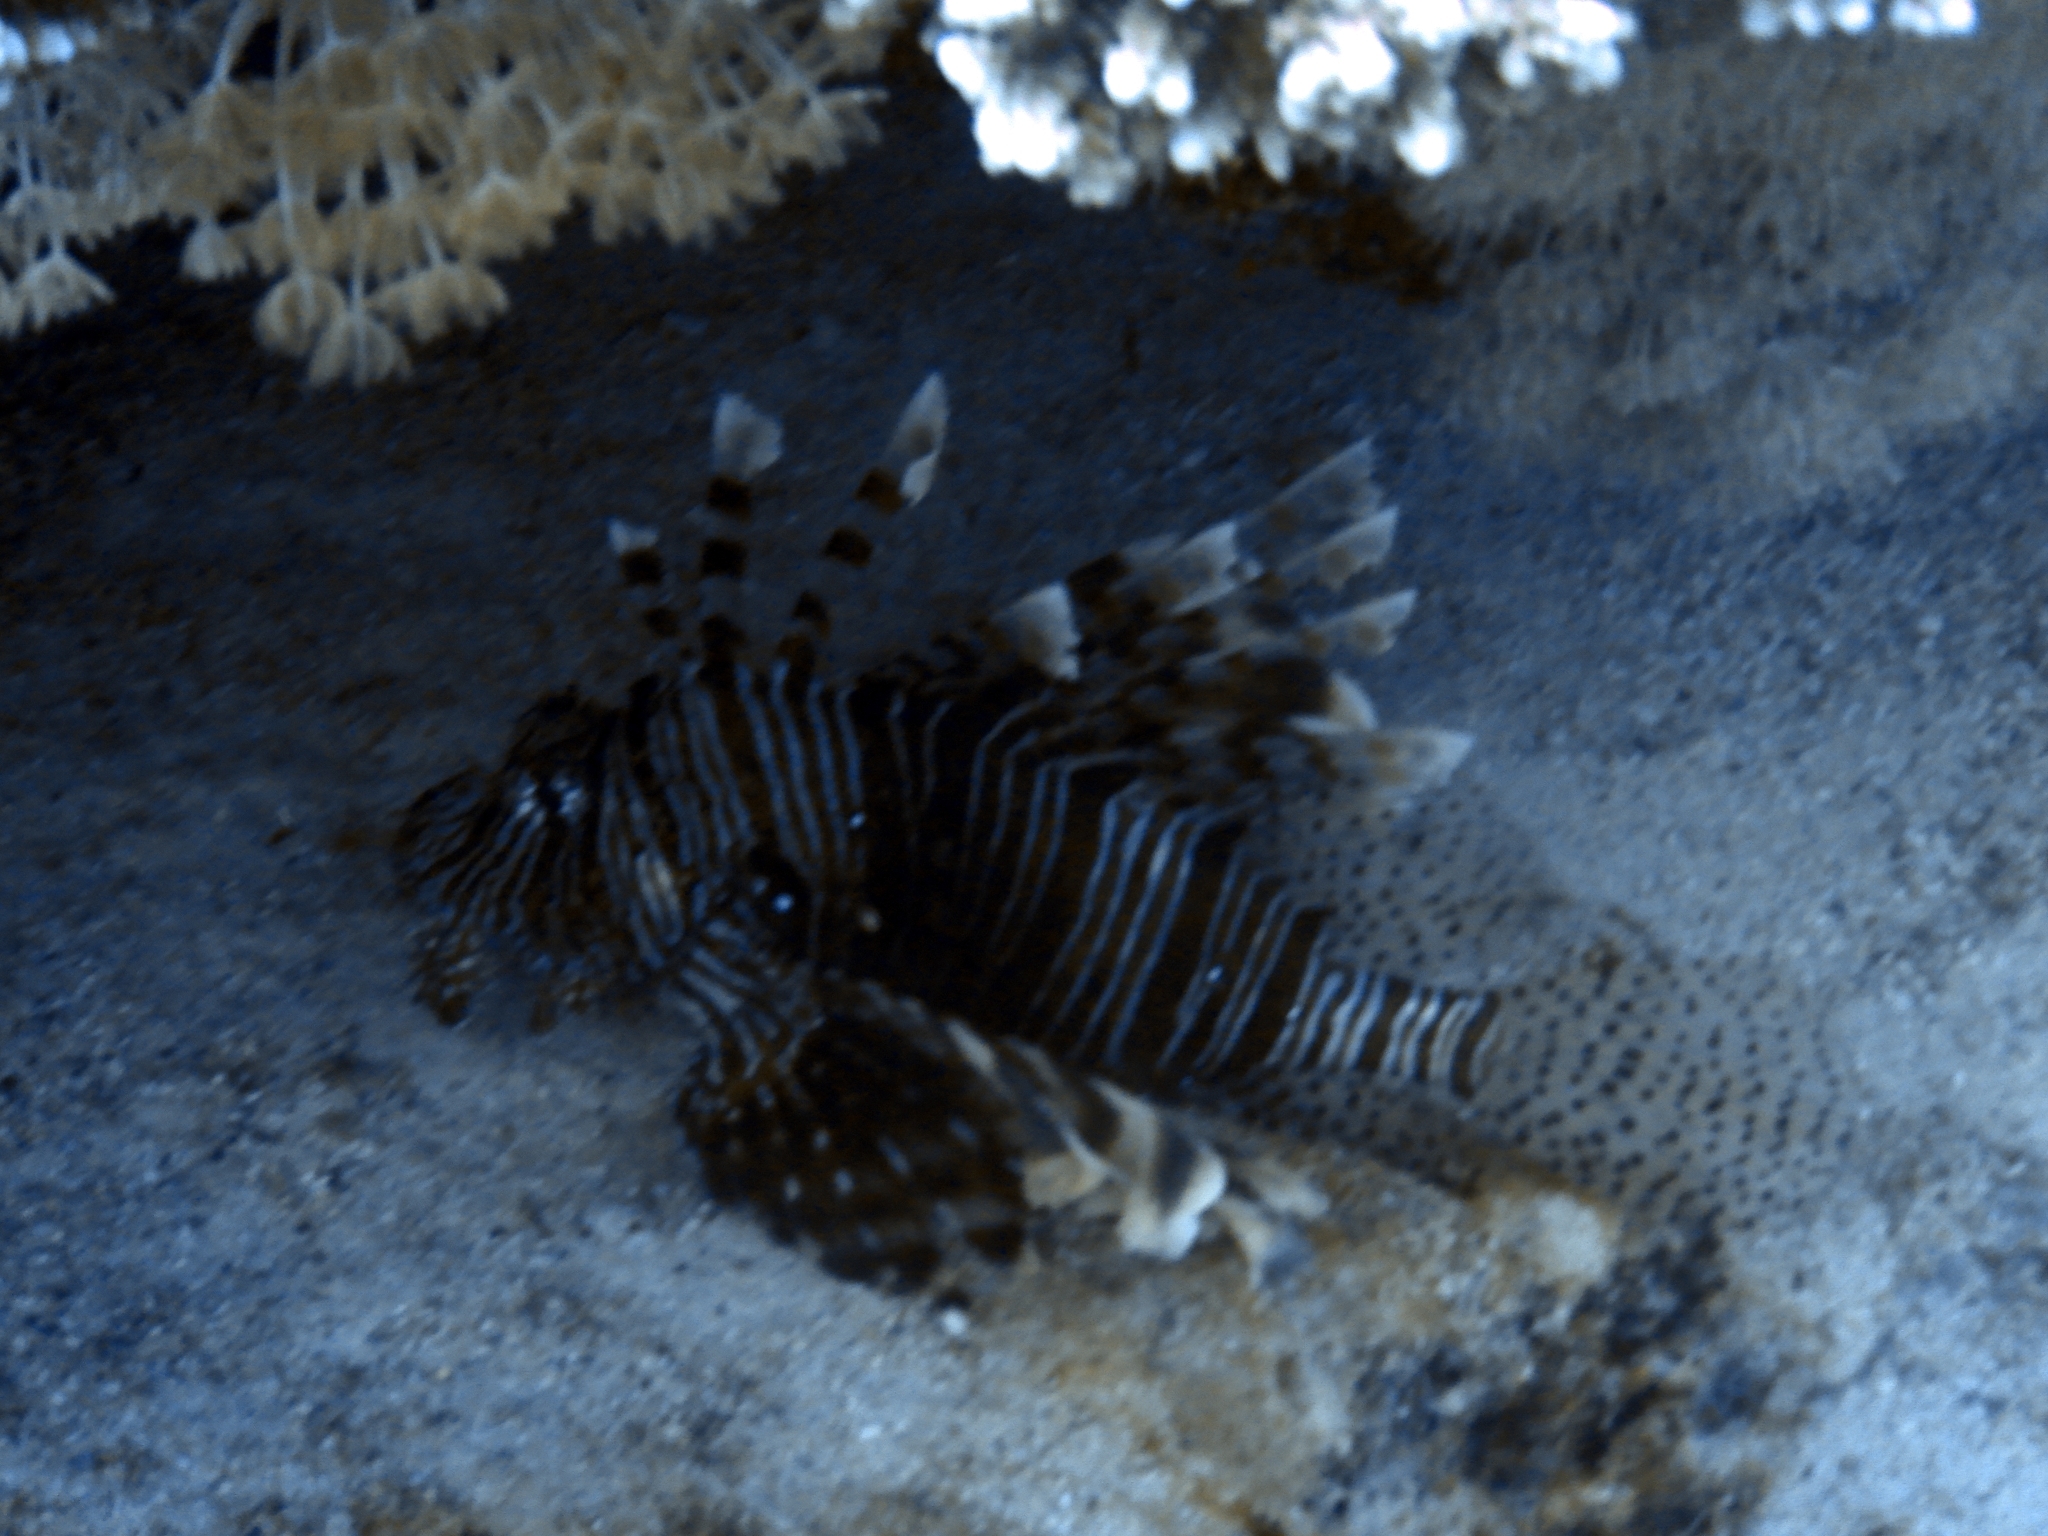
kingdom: Animalia
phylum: Chordata
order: Scorpaeniformes
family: Scorpaenidae
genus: Pterois
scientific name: Pterois miles
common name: Devil firefish
